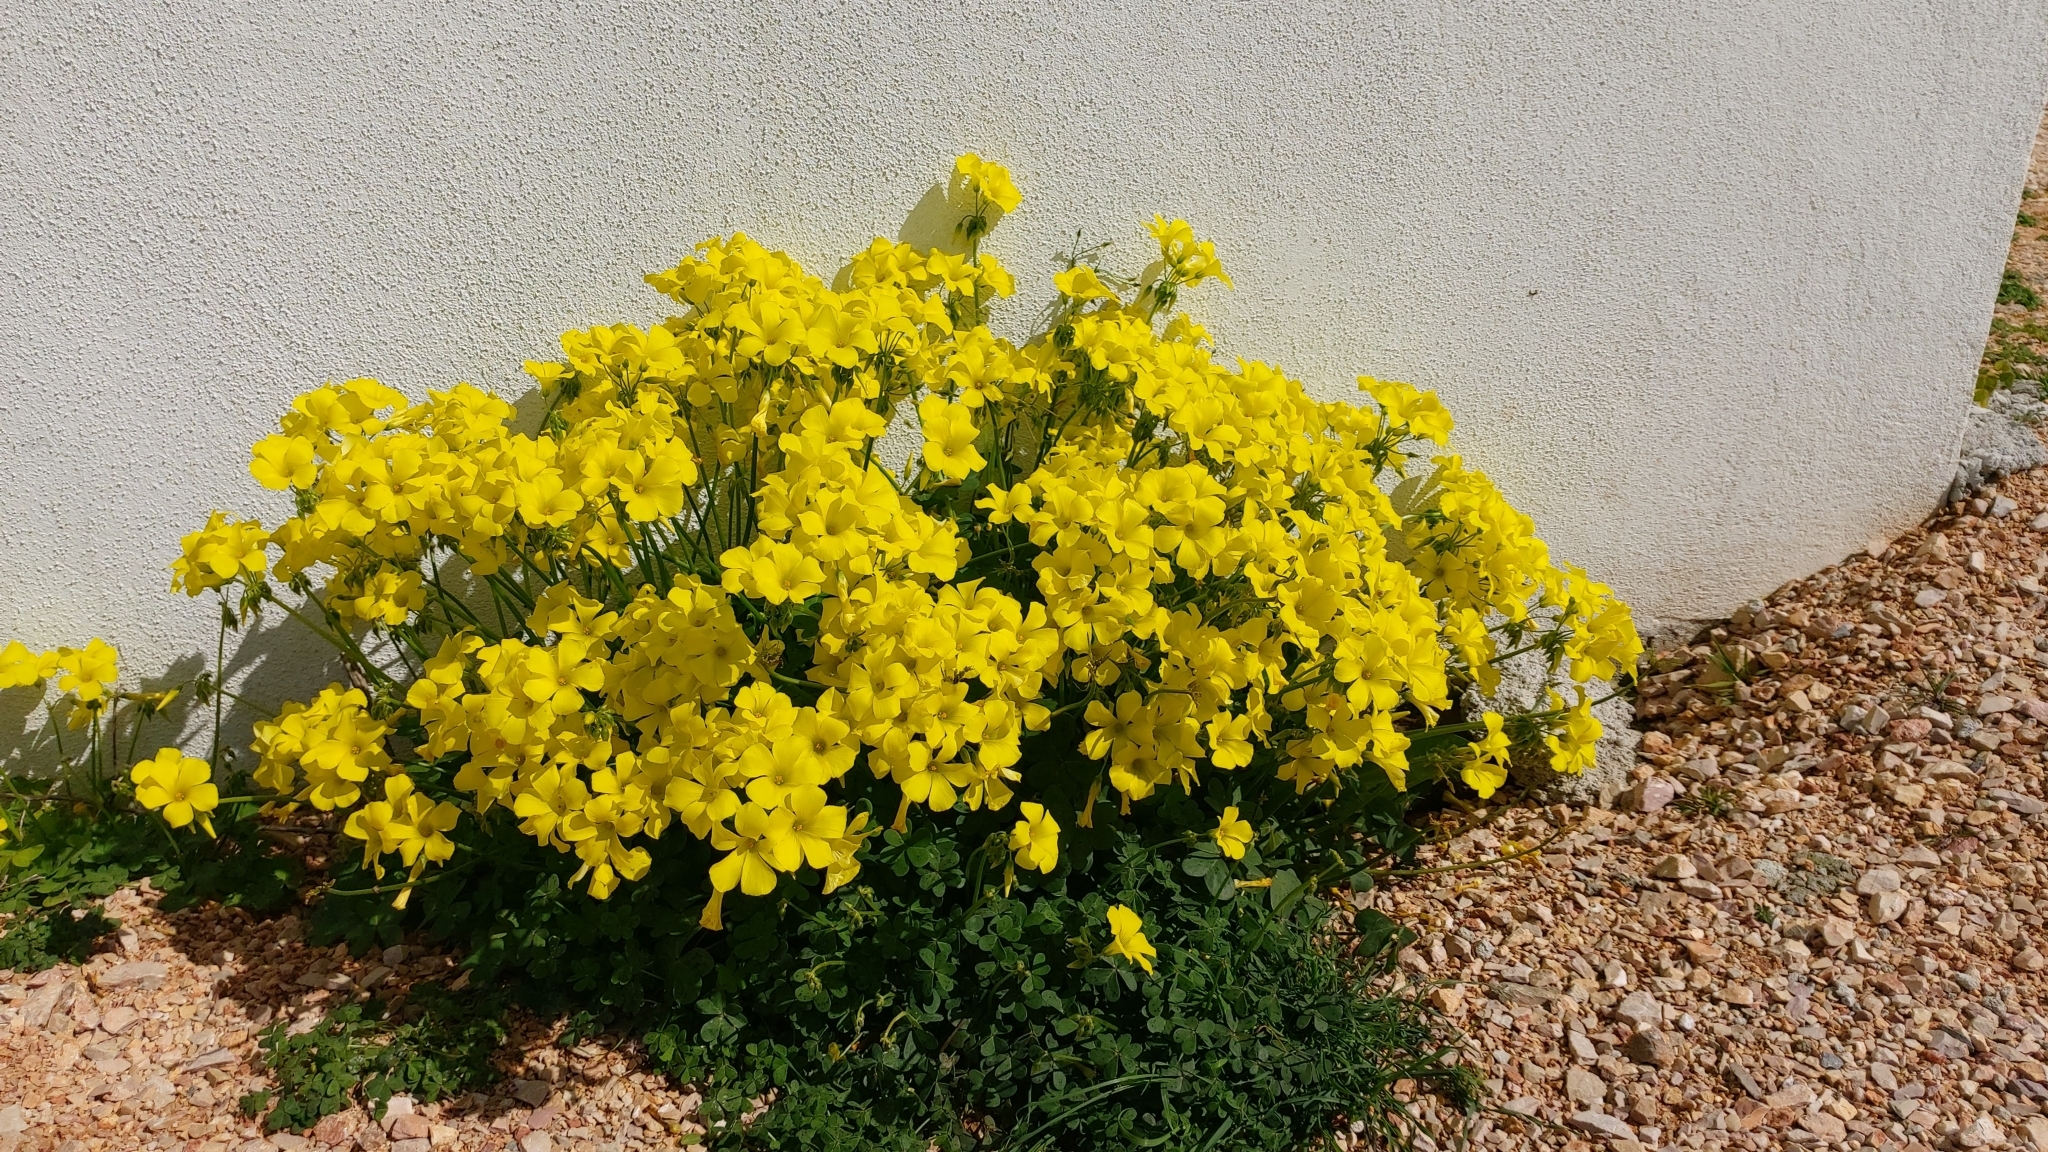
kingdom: Plantae
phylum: Tracheophyta
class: Magnoliopsida
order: Oxalidales
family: Oxalidaceae
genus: Oxalis
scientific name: Oxalis pes-caprae
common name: Bermuda-buttercup
